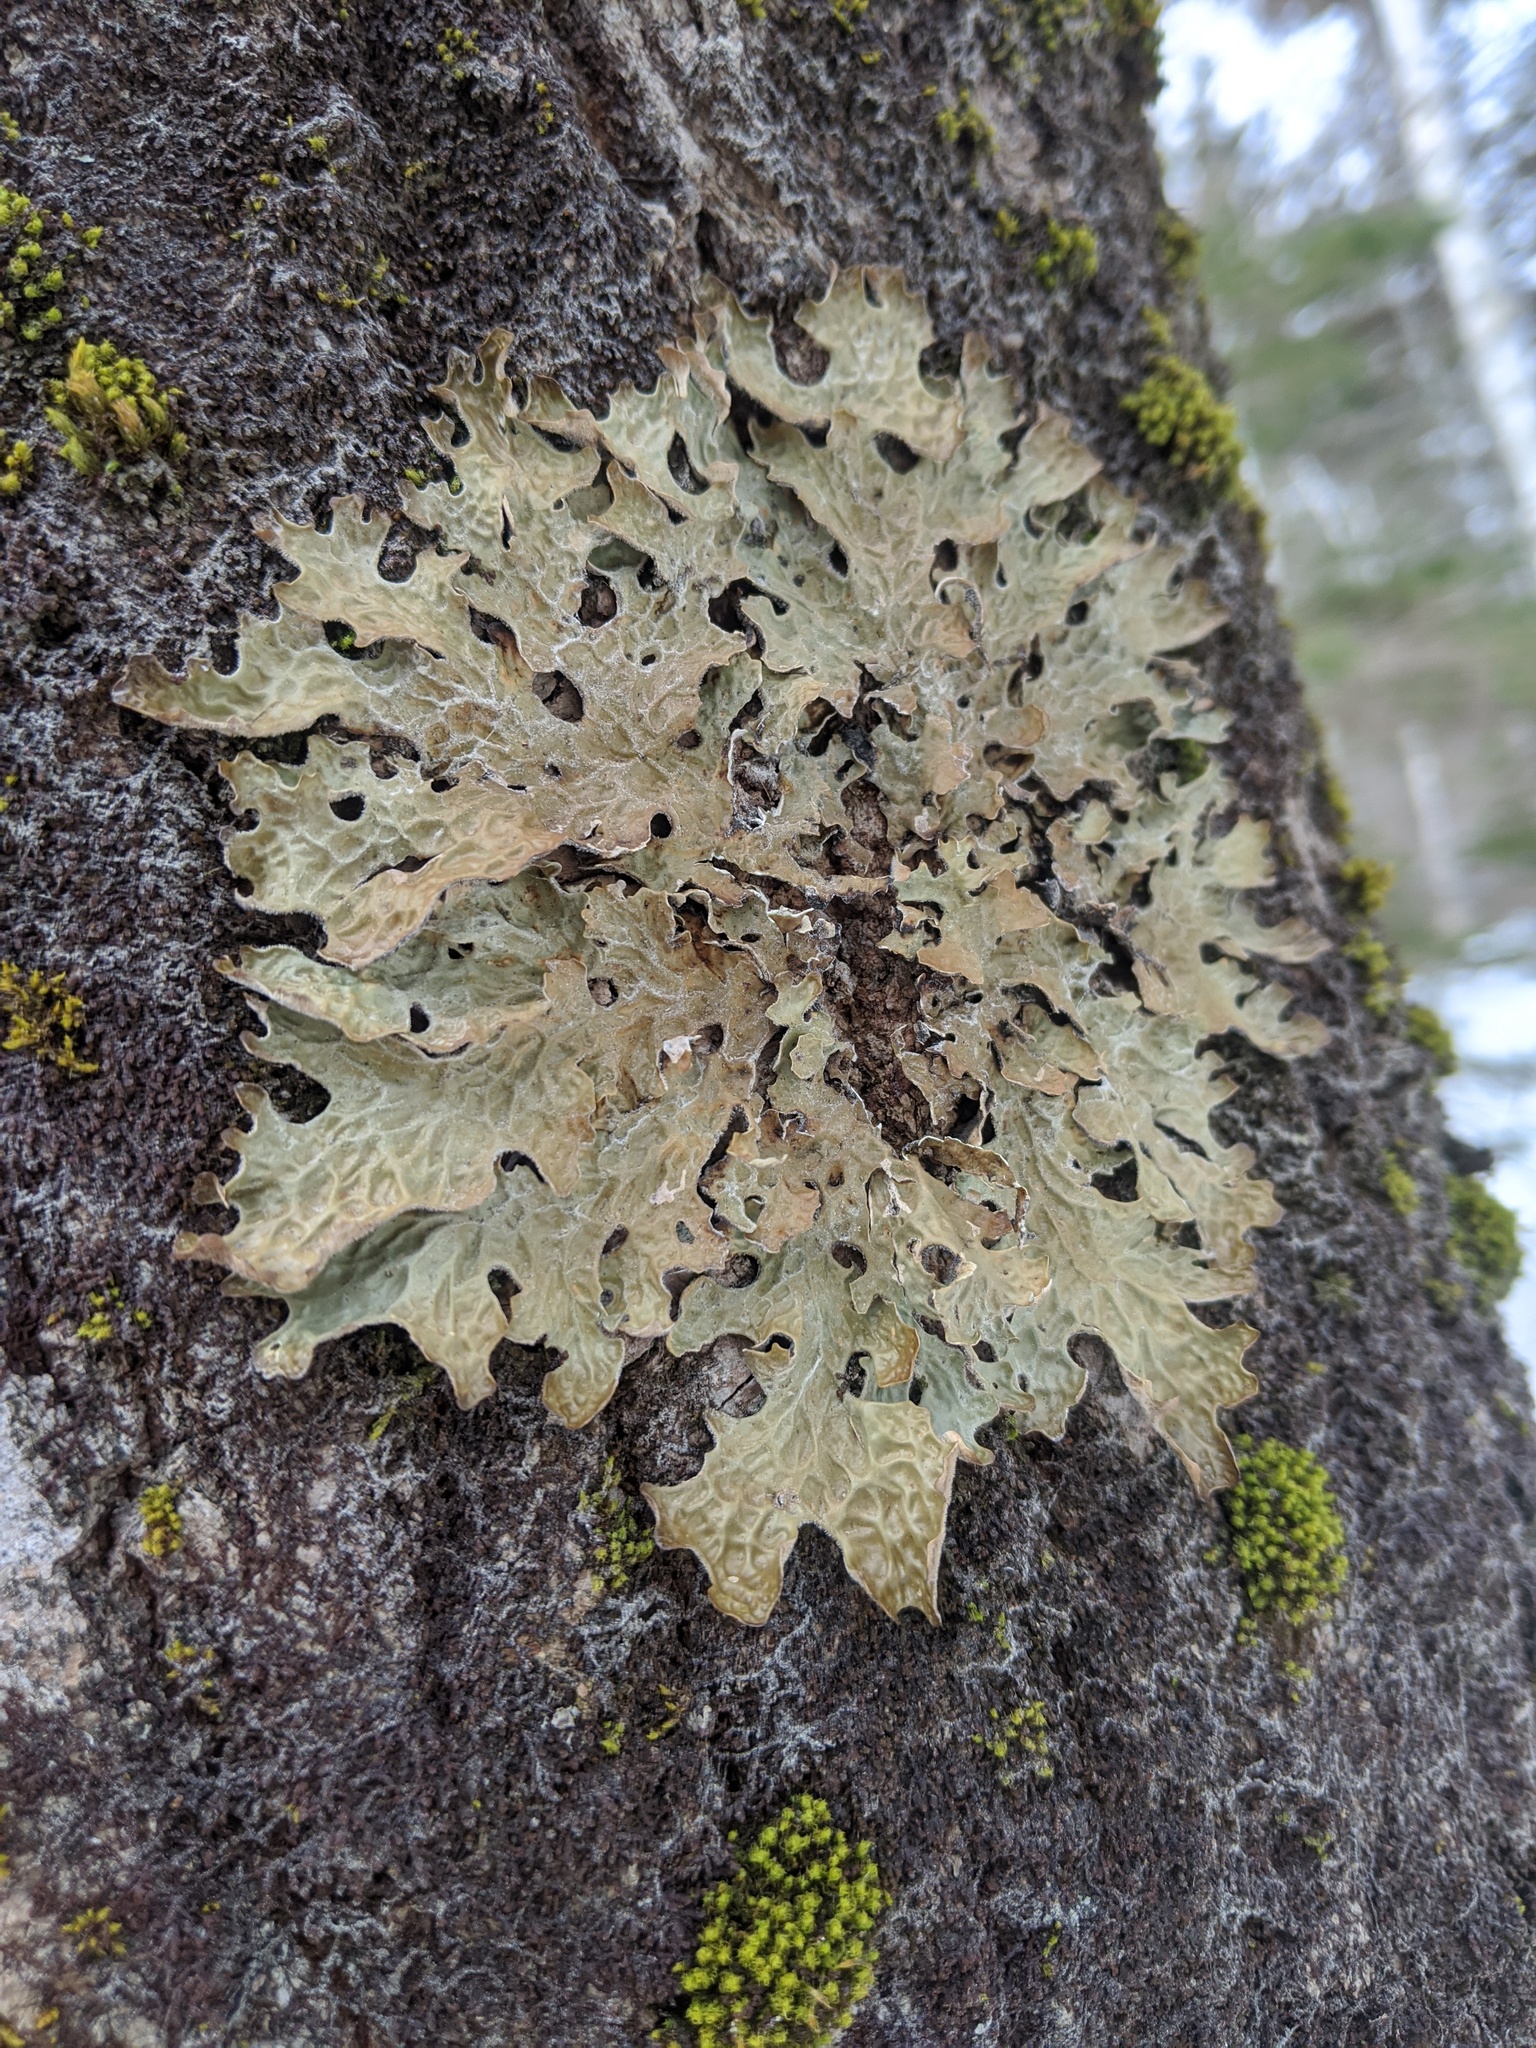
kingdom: Fungi
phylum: Ascomycota
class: Lecanoromycetes
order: Peltigerales
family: Lobariaceae
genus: Lobaria
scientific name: Lobaria pulmonaria
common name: Lungwort
